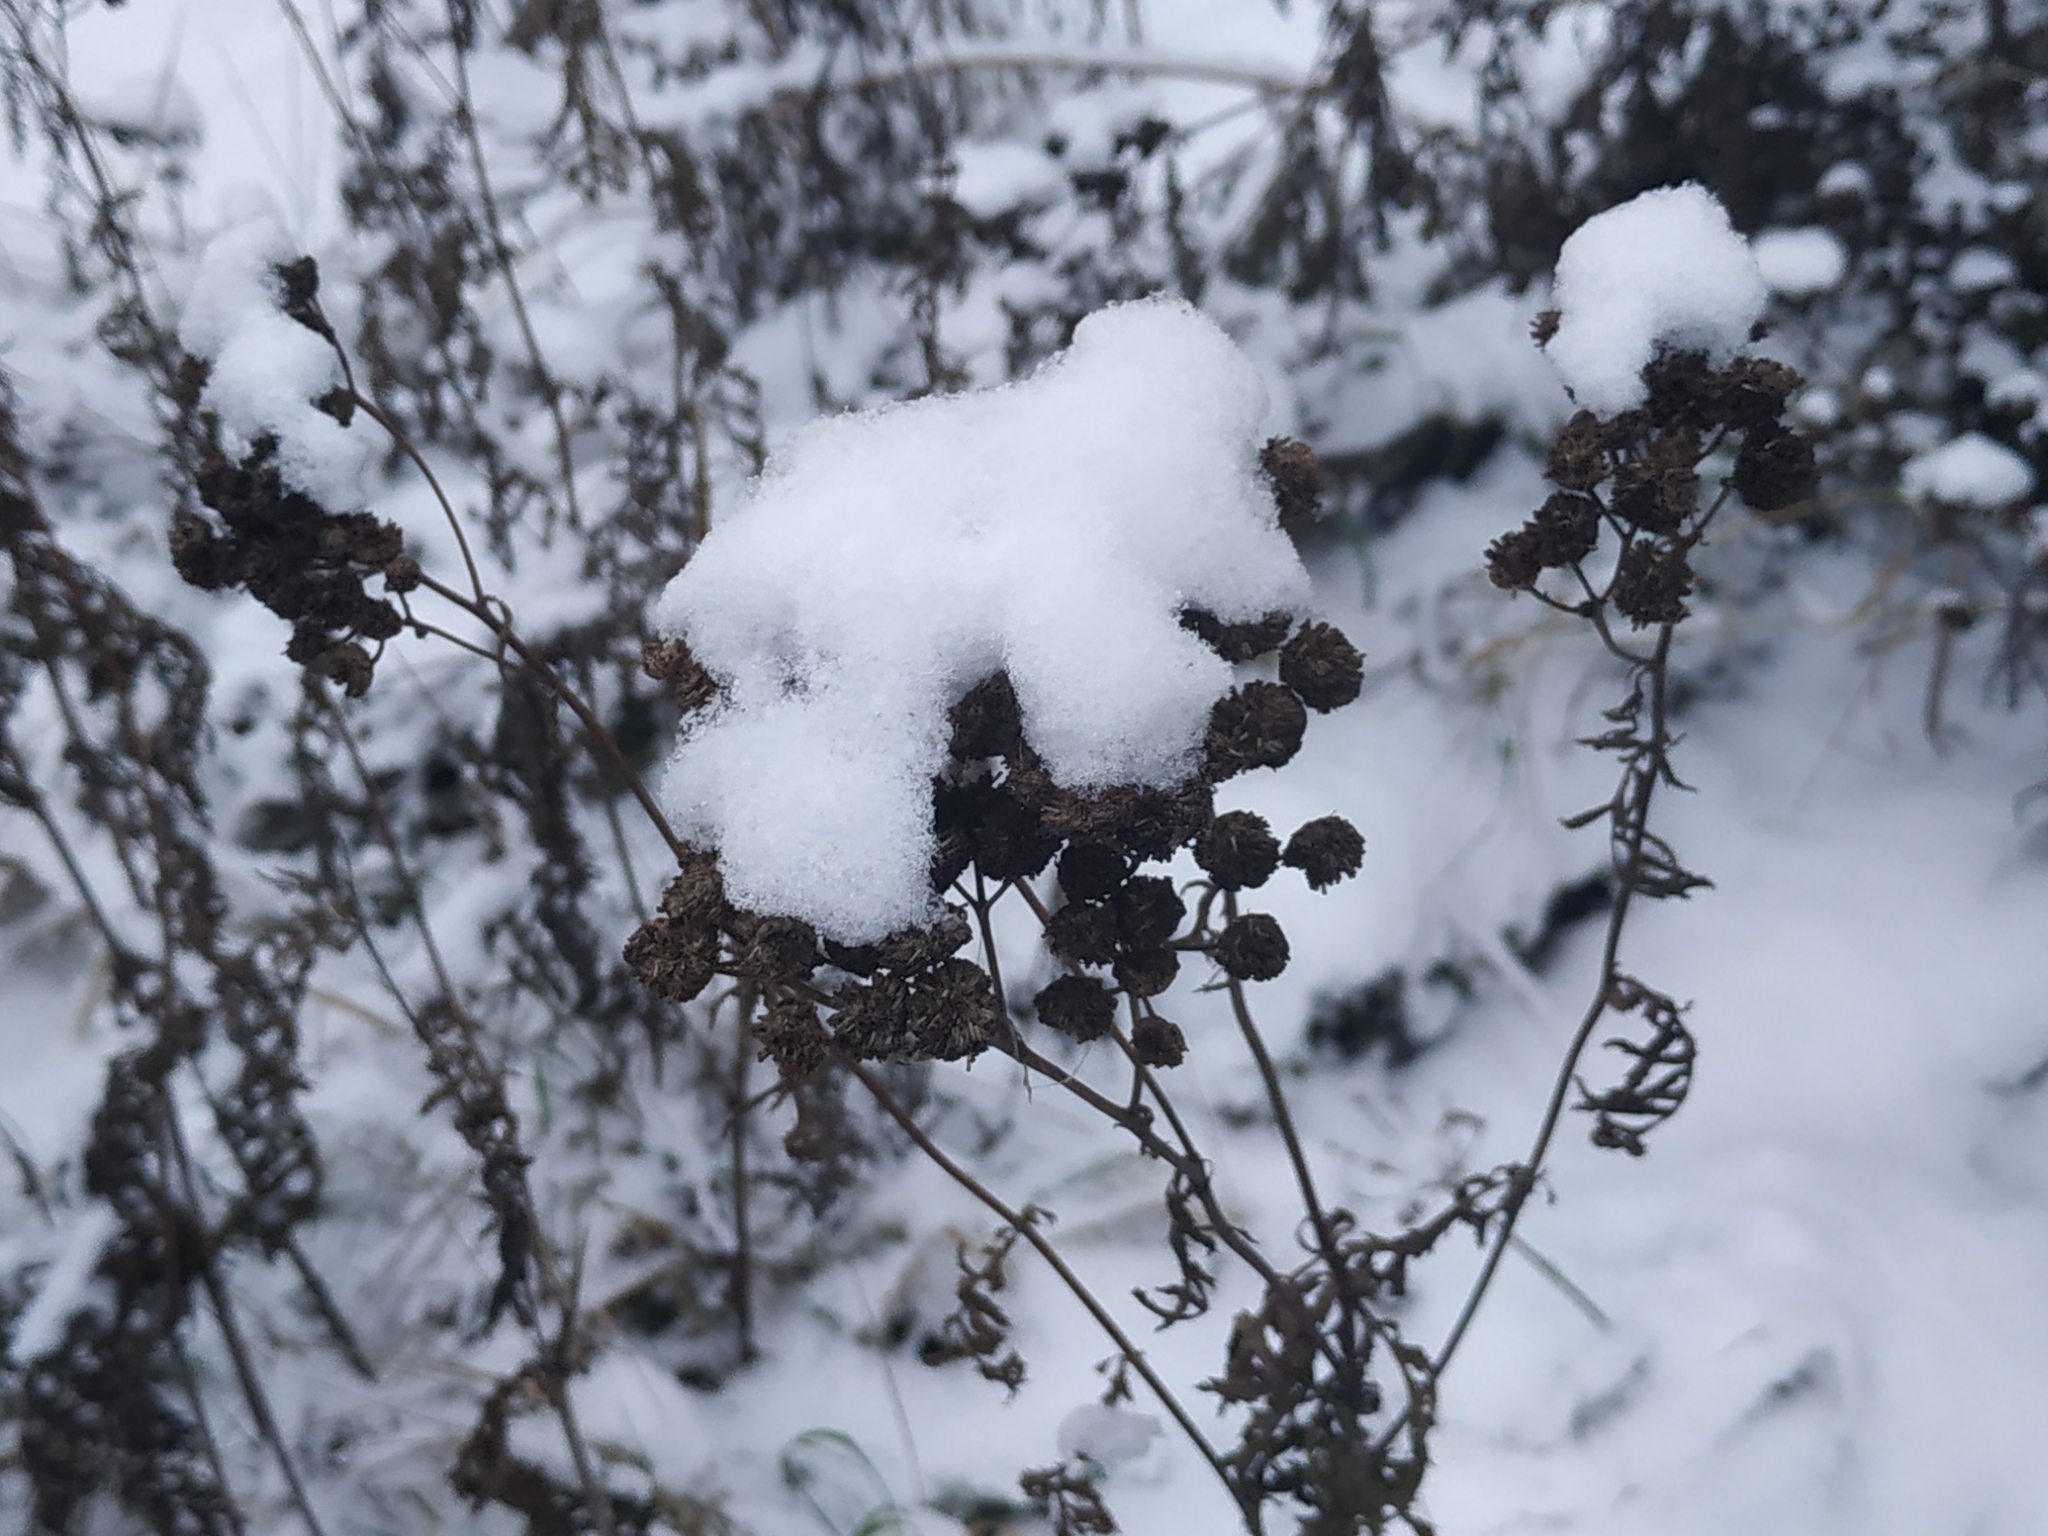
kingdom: Plantae
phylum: Tracheophyta
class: Magnoliopsida
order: Asterales
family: Asteraceae
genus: Tanacetum
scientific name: Tanacetum vulgare
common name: Common tansy
